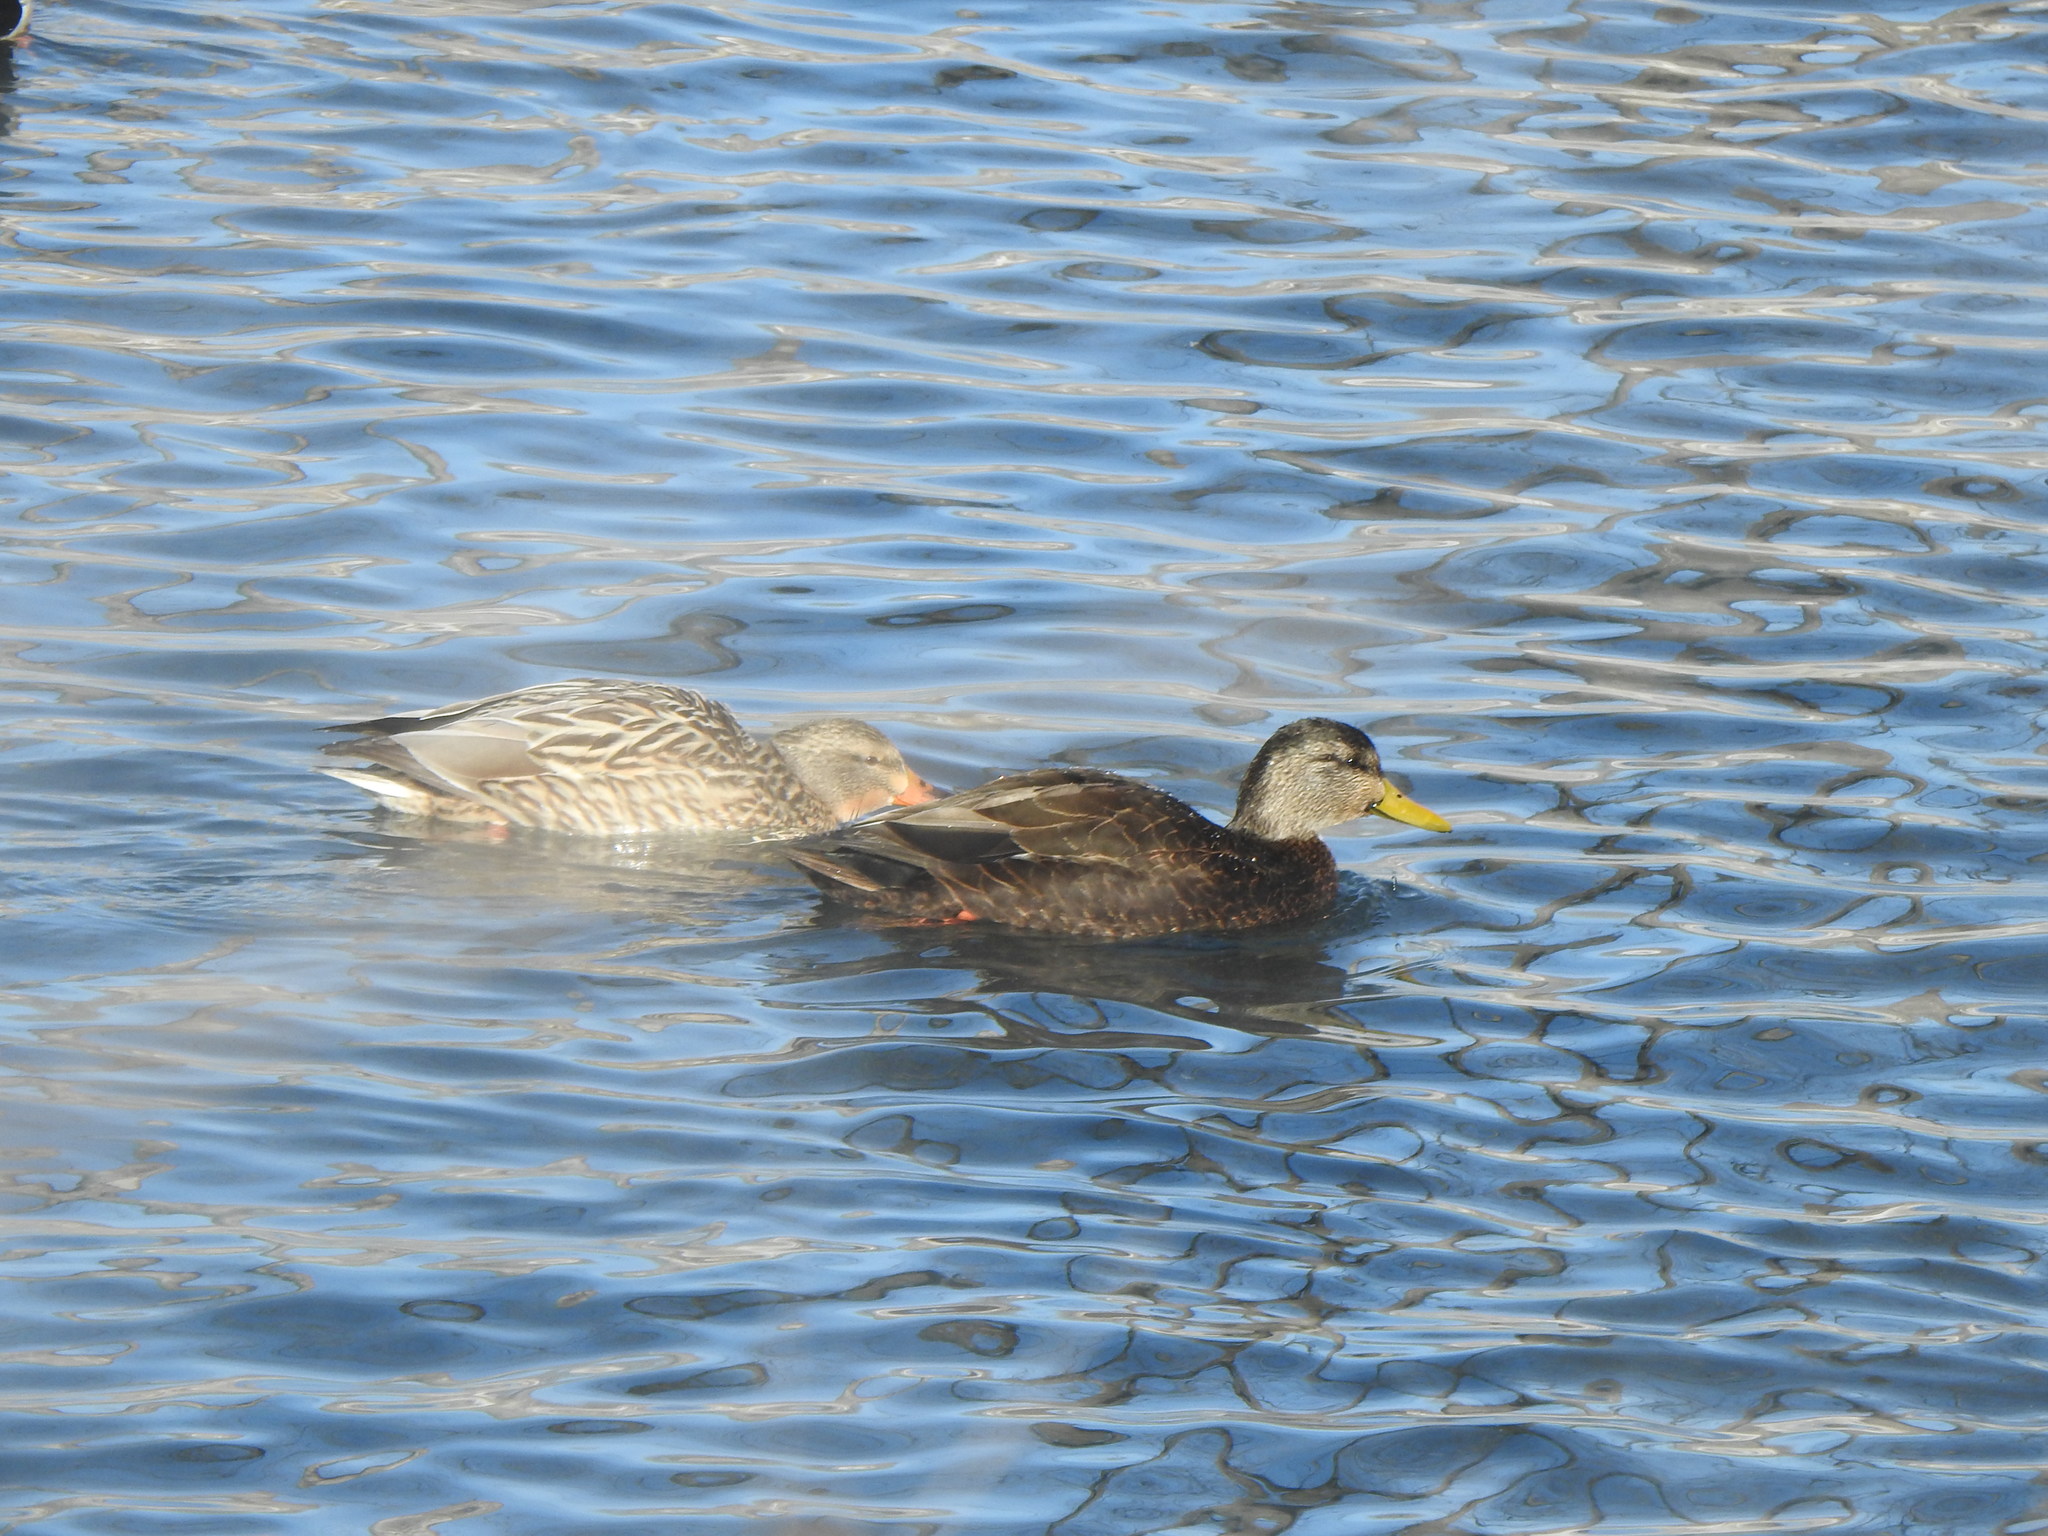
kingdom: Animalia
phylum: Chordata
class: Aves
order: Anseriformes
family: Anatidae
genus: Anas
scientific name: Anas rubripes
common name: American black duck
